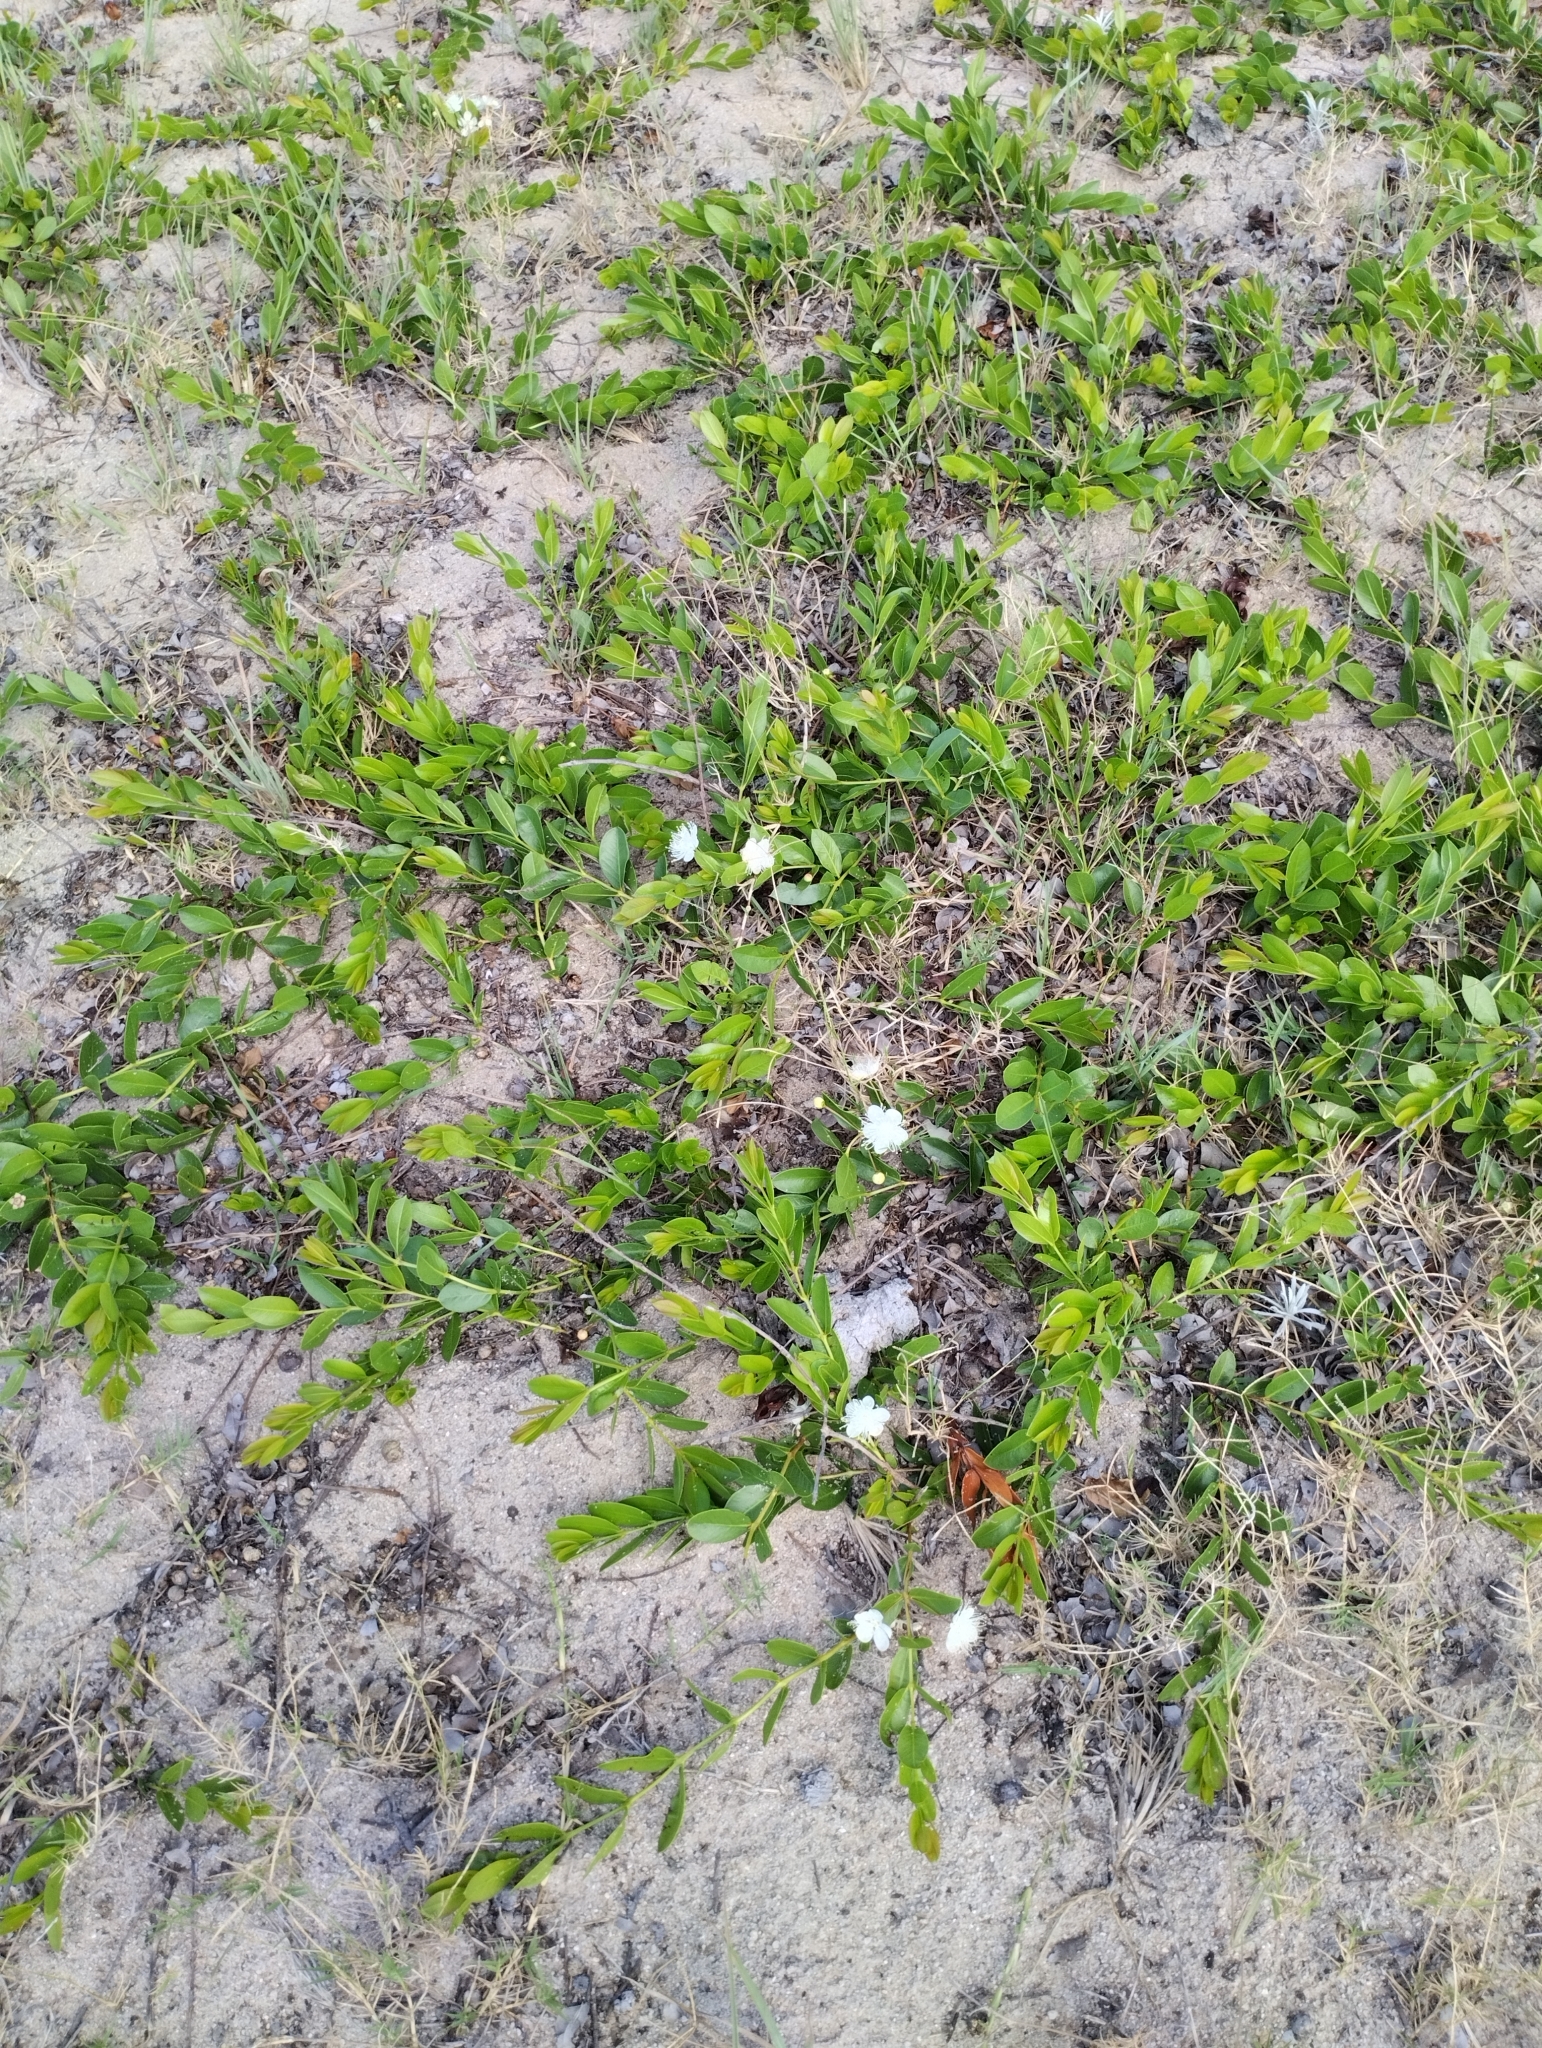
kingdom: Plantae
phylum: Tracheophyta
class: Magnoliopsida
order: Myrtales
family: Myrtaceae
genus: Psidium
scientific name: Psidium salutare
